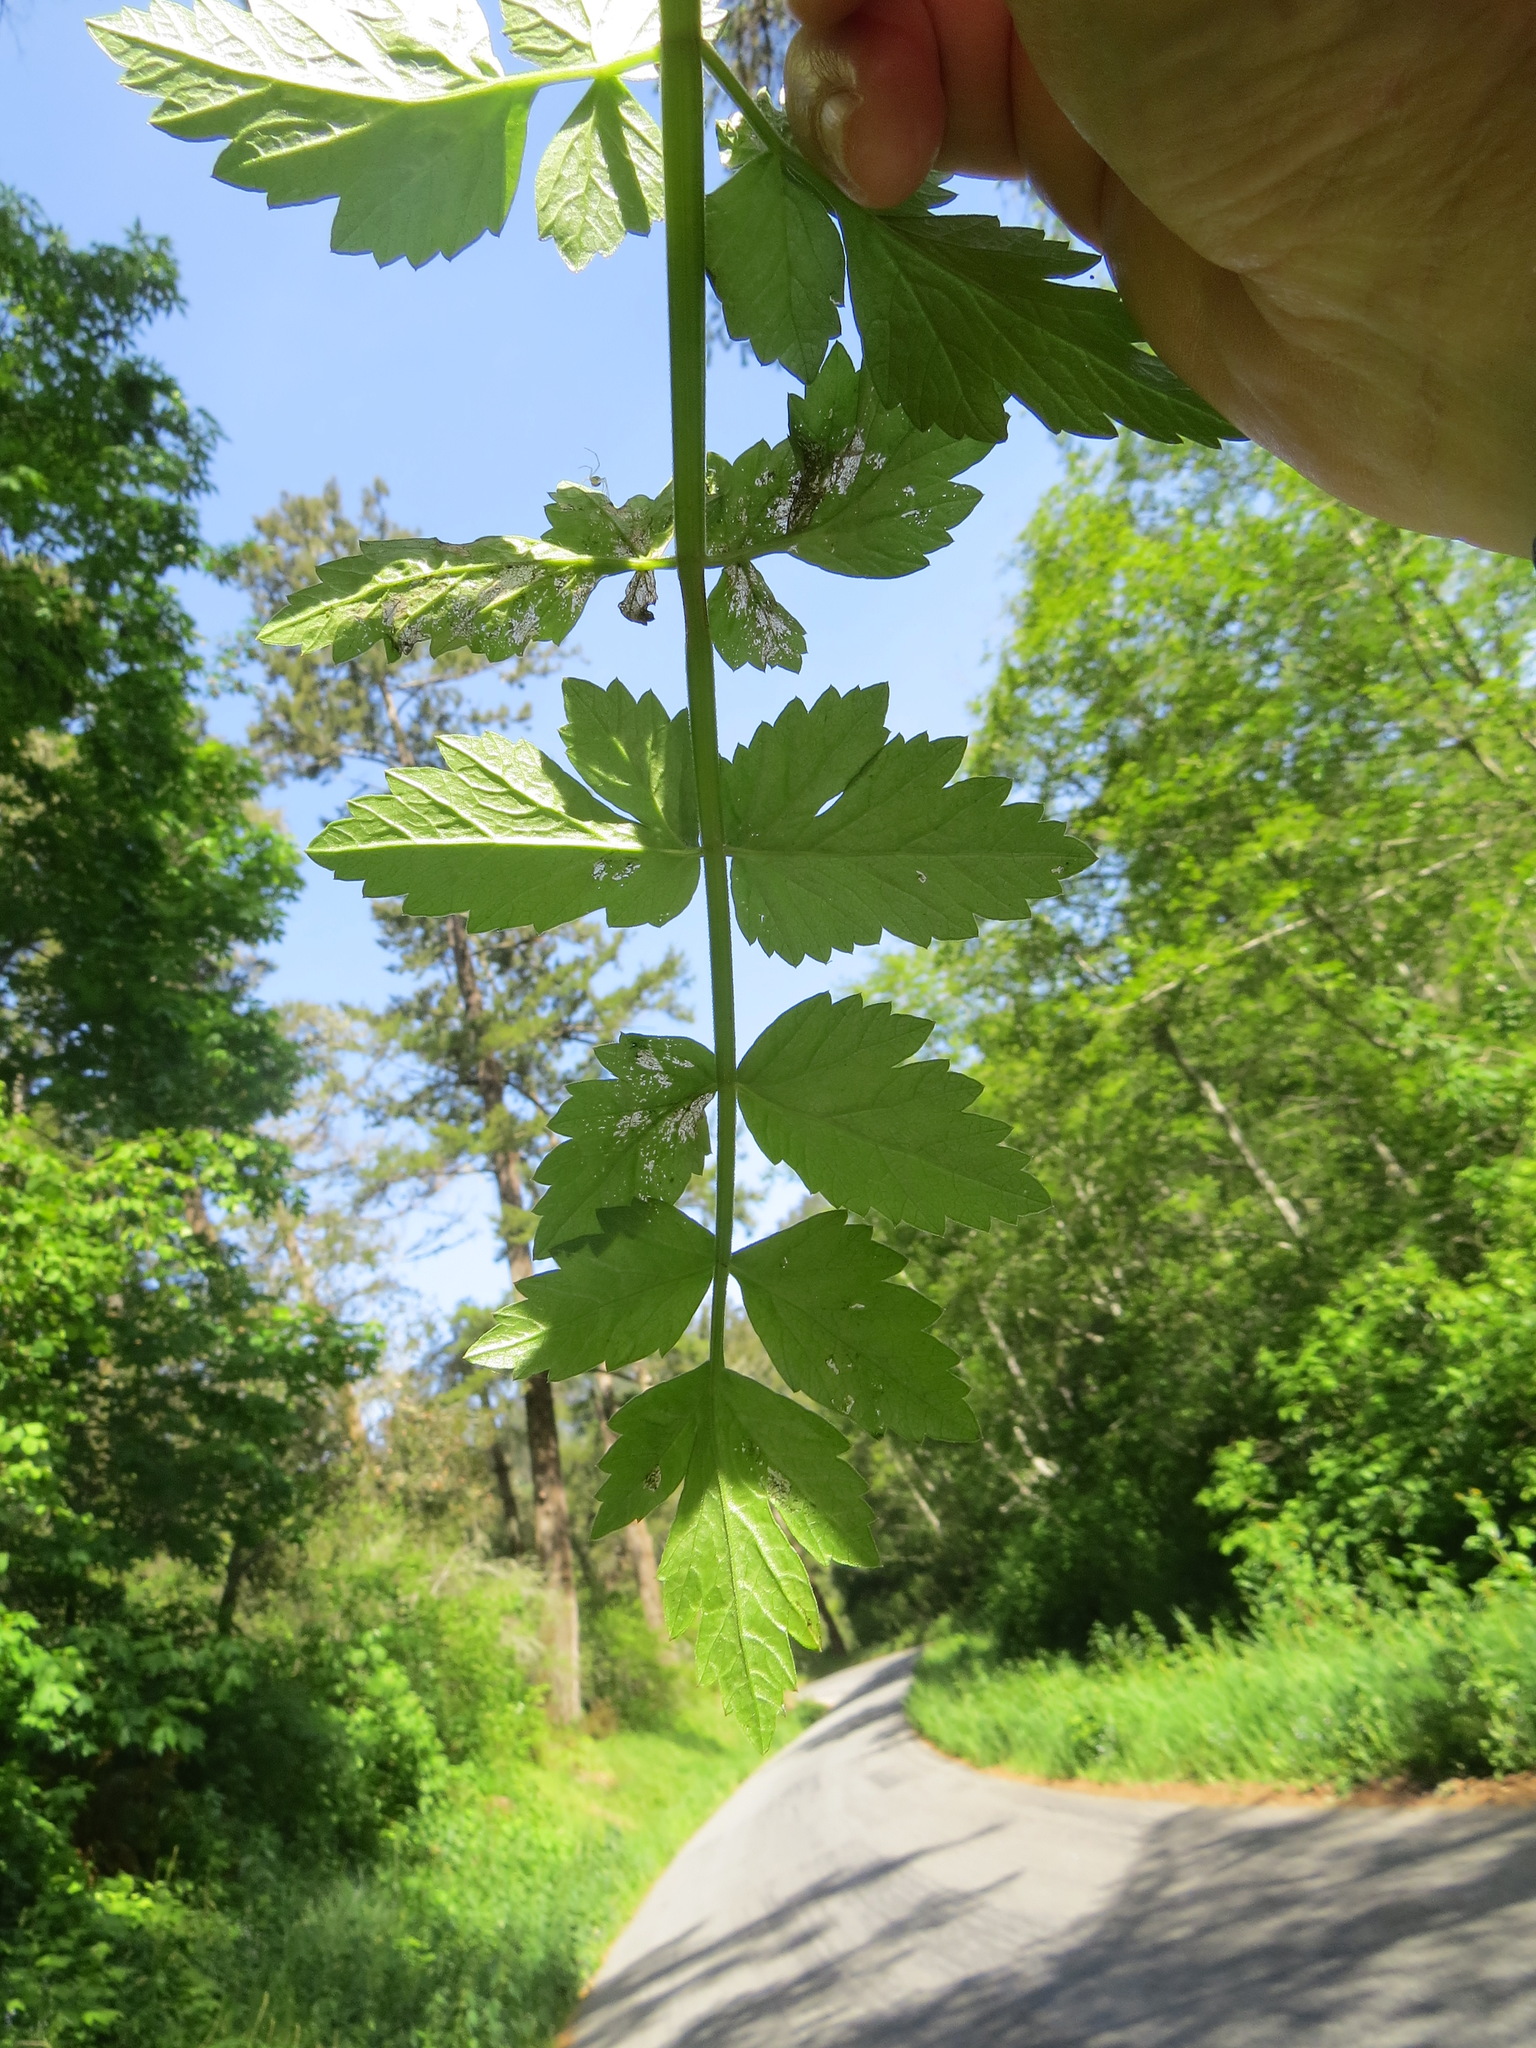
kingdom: Plantae
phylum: Tracheophyta
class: Magnoliopsida
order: Apiales
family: Apiaceae
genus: Oenanthe
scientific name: Oenanthe sarmentosa
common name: American water-parsley
